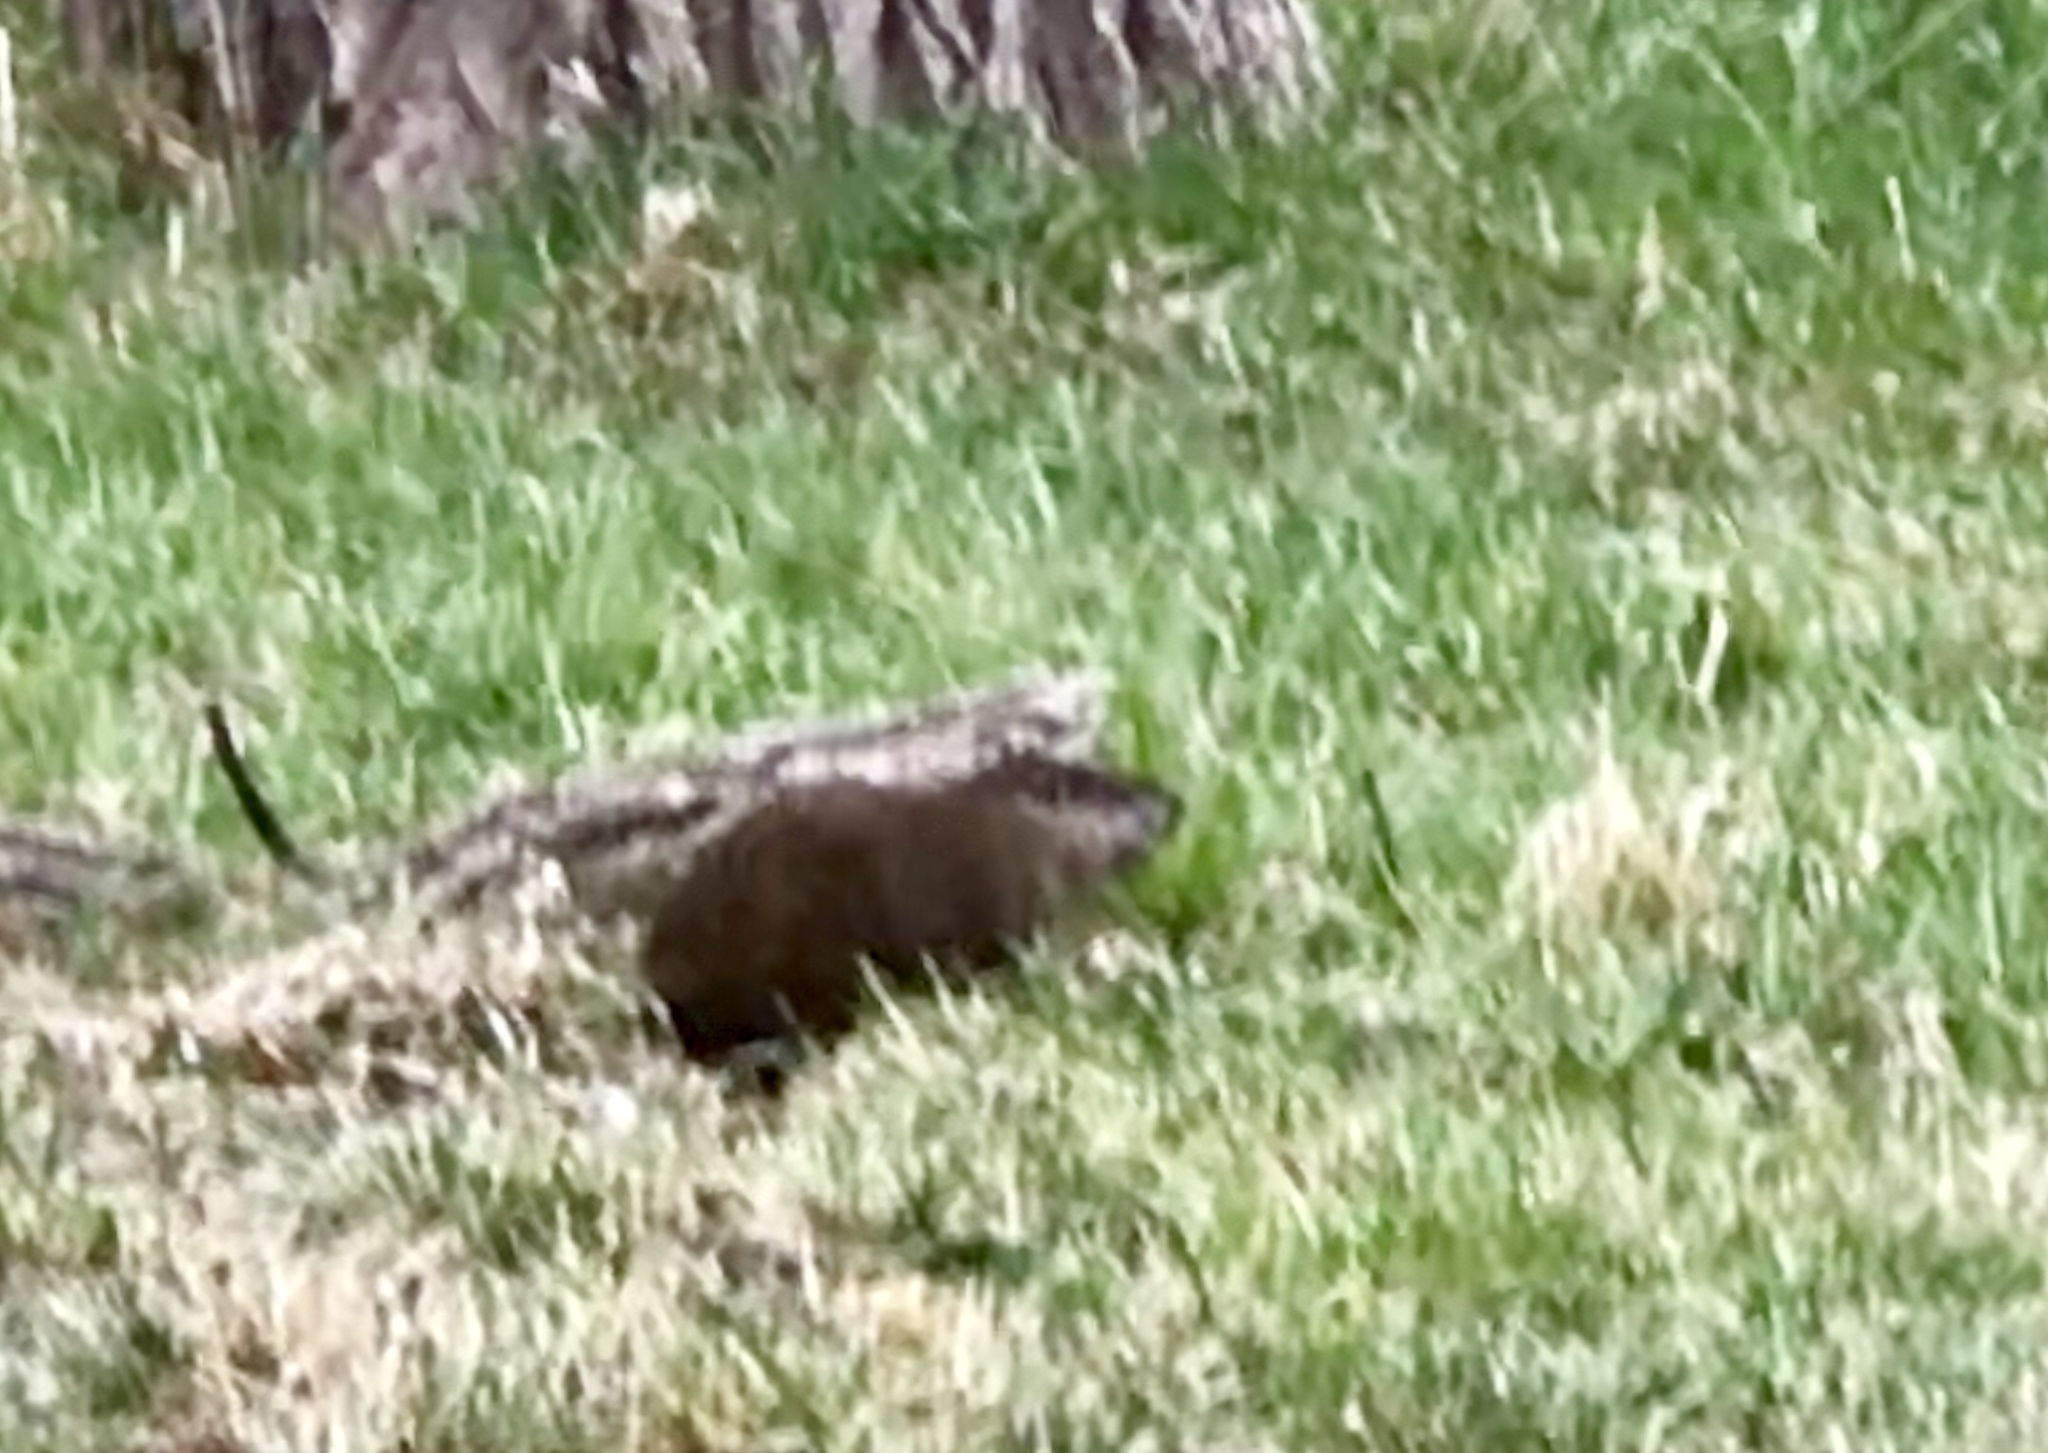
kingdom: Animalia
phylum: Chordata
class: Mammalia
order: Rodentia
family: Sciuridae
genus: Marmota
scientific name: Marmota monax
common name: Groundhog
